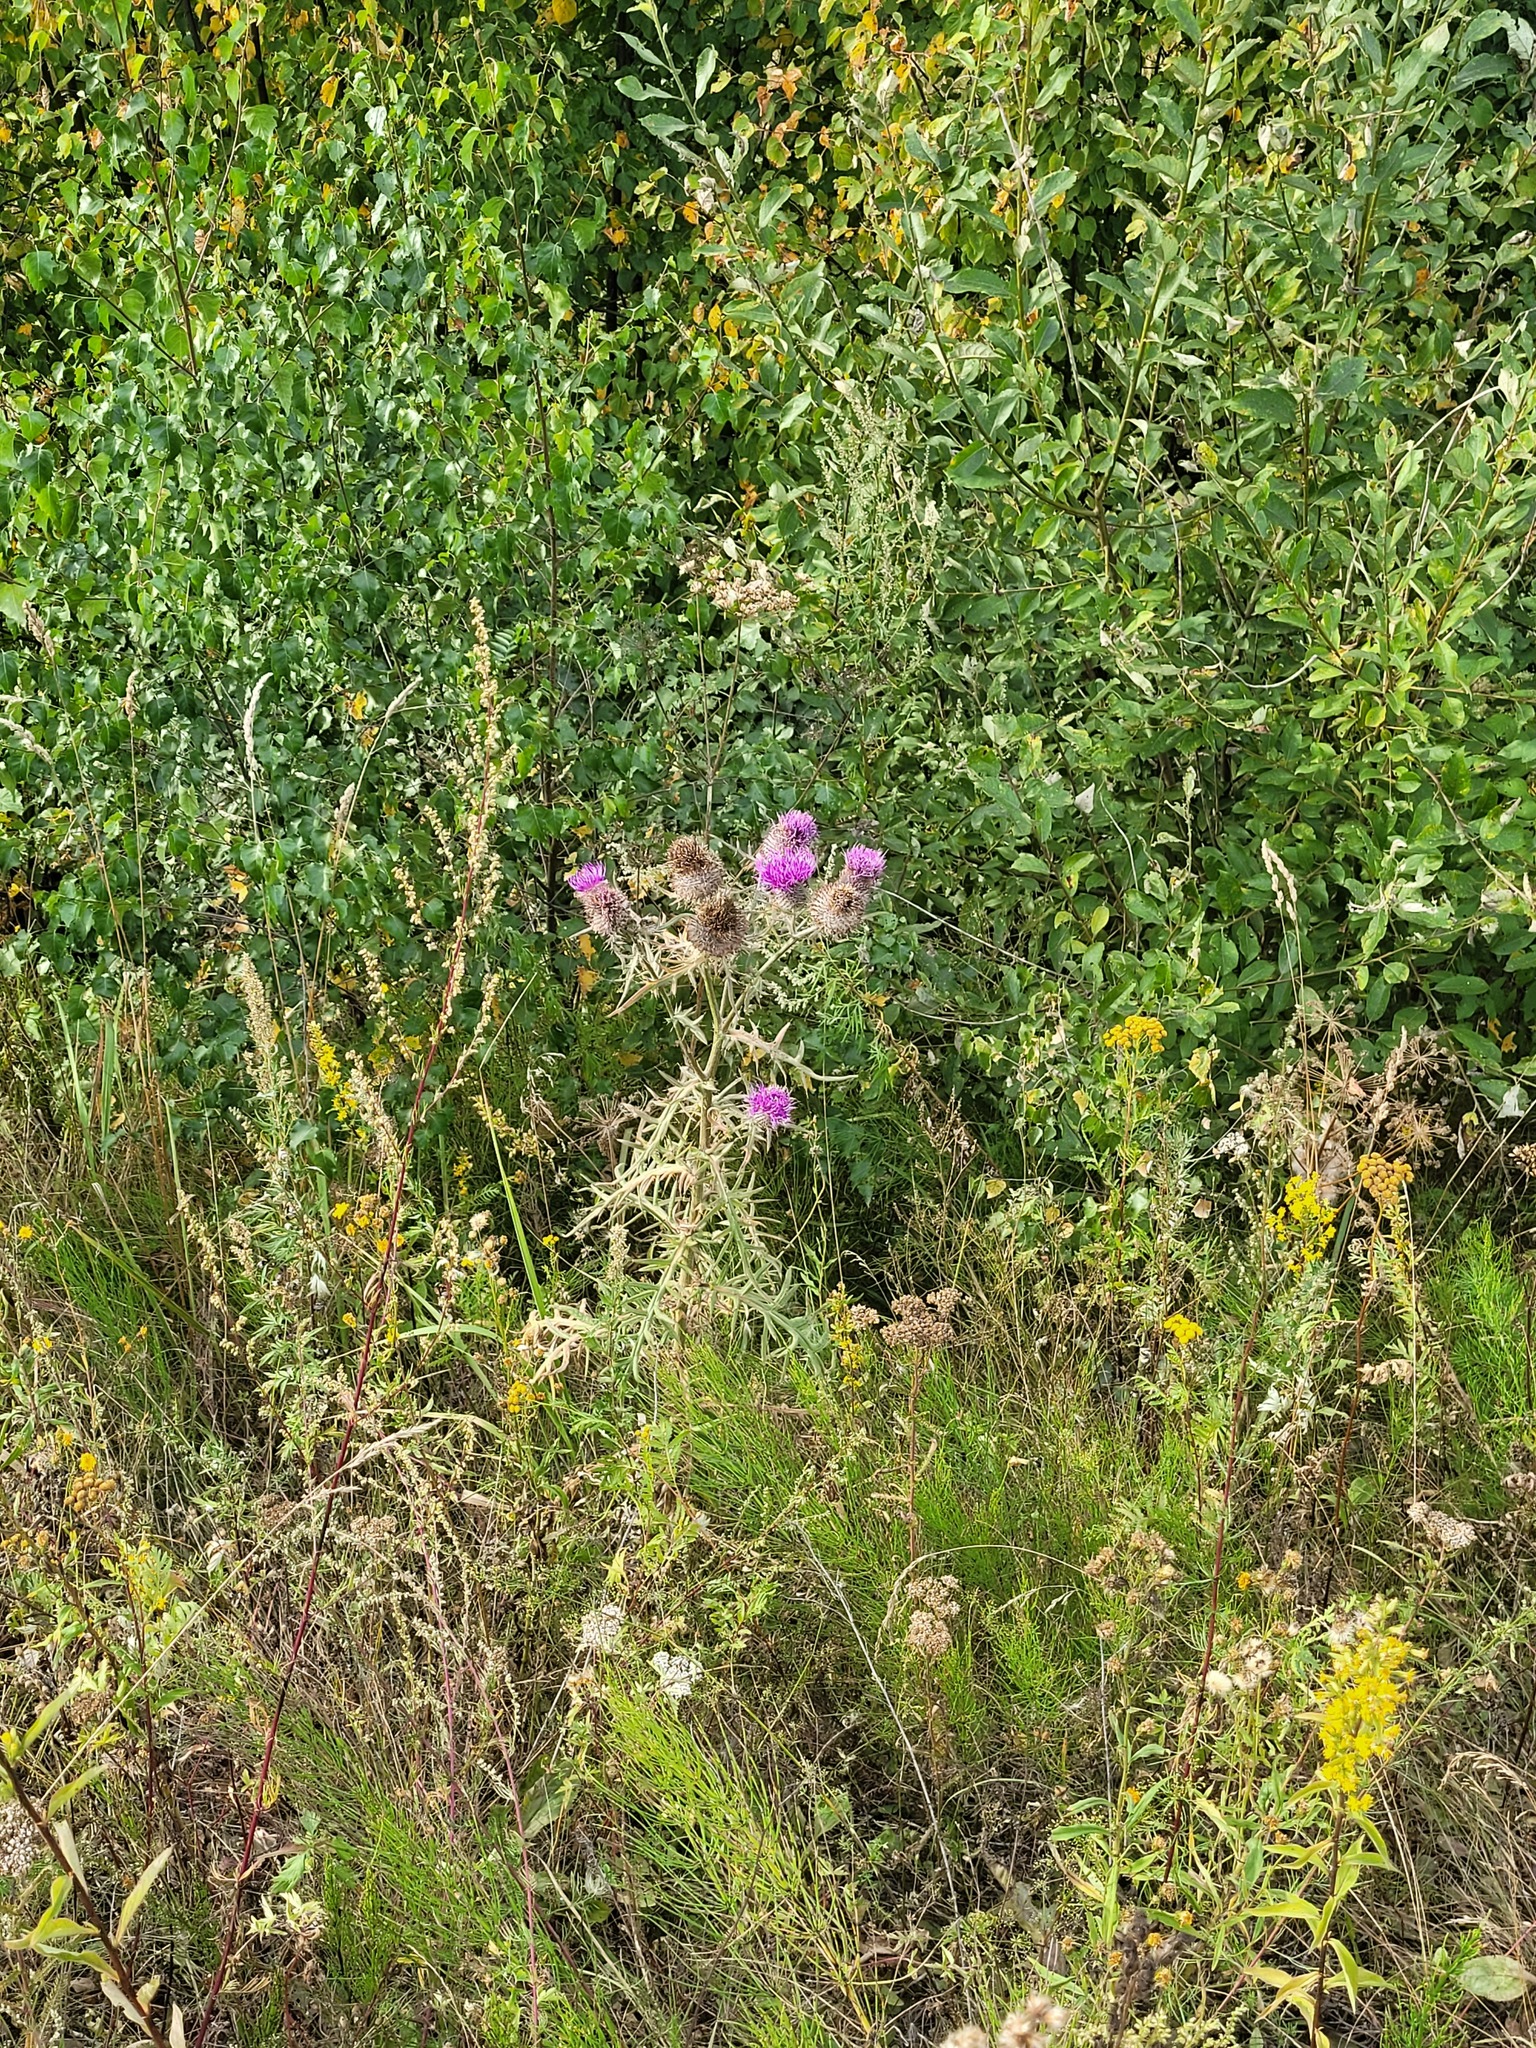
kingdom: Plantae
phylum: Tracheophyta
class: Magnoliopsida
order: Asterales
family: Asteraceae
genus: Lophiolepis
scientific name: Lophiolepis decussata
